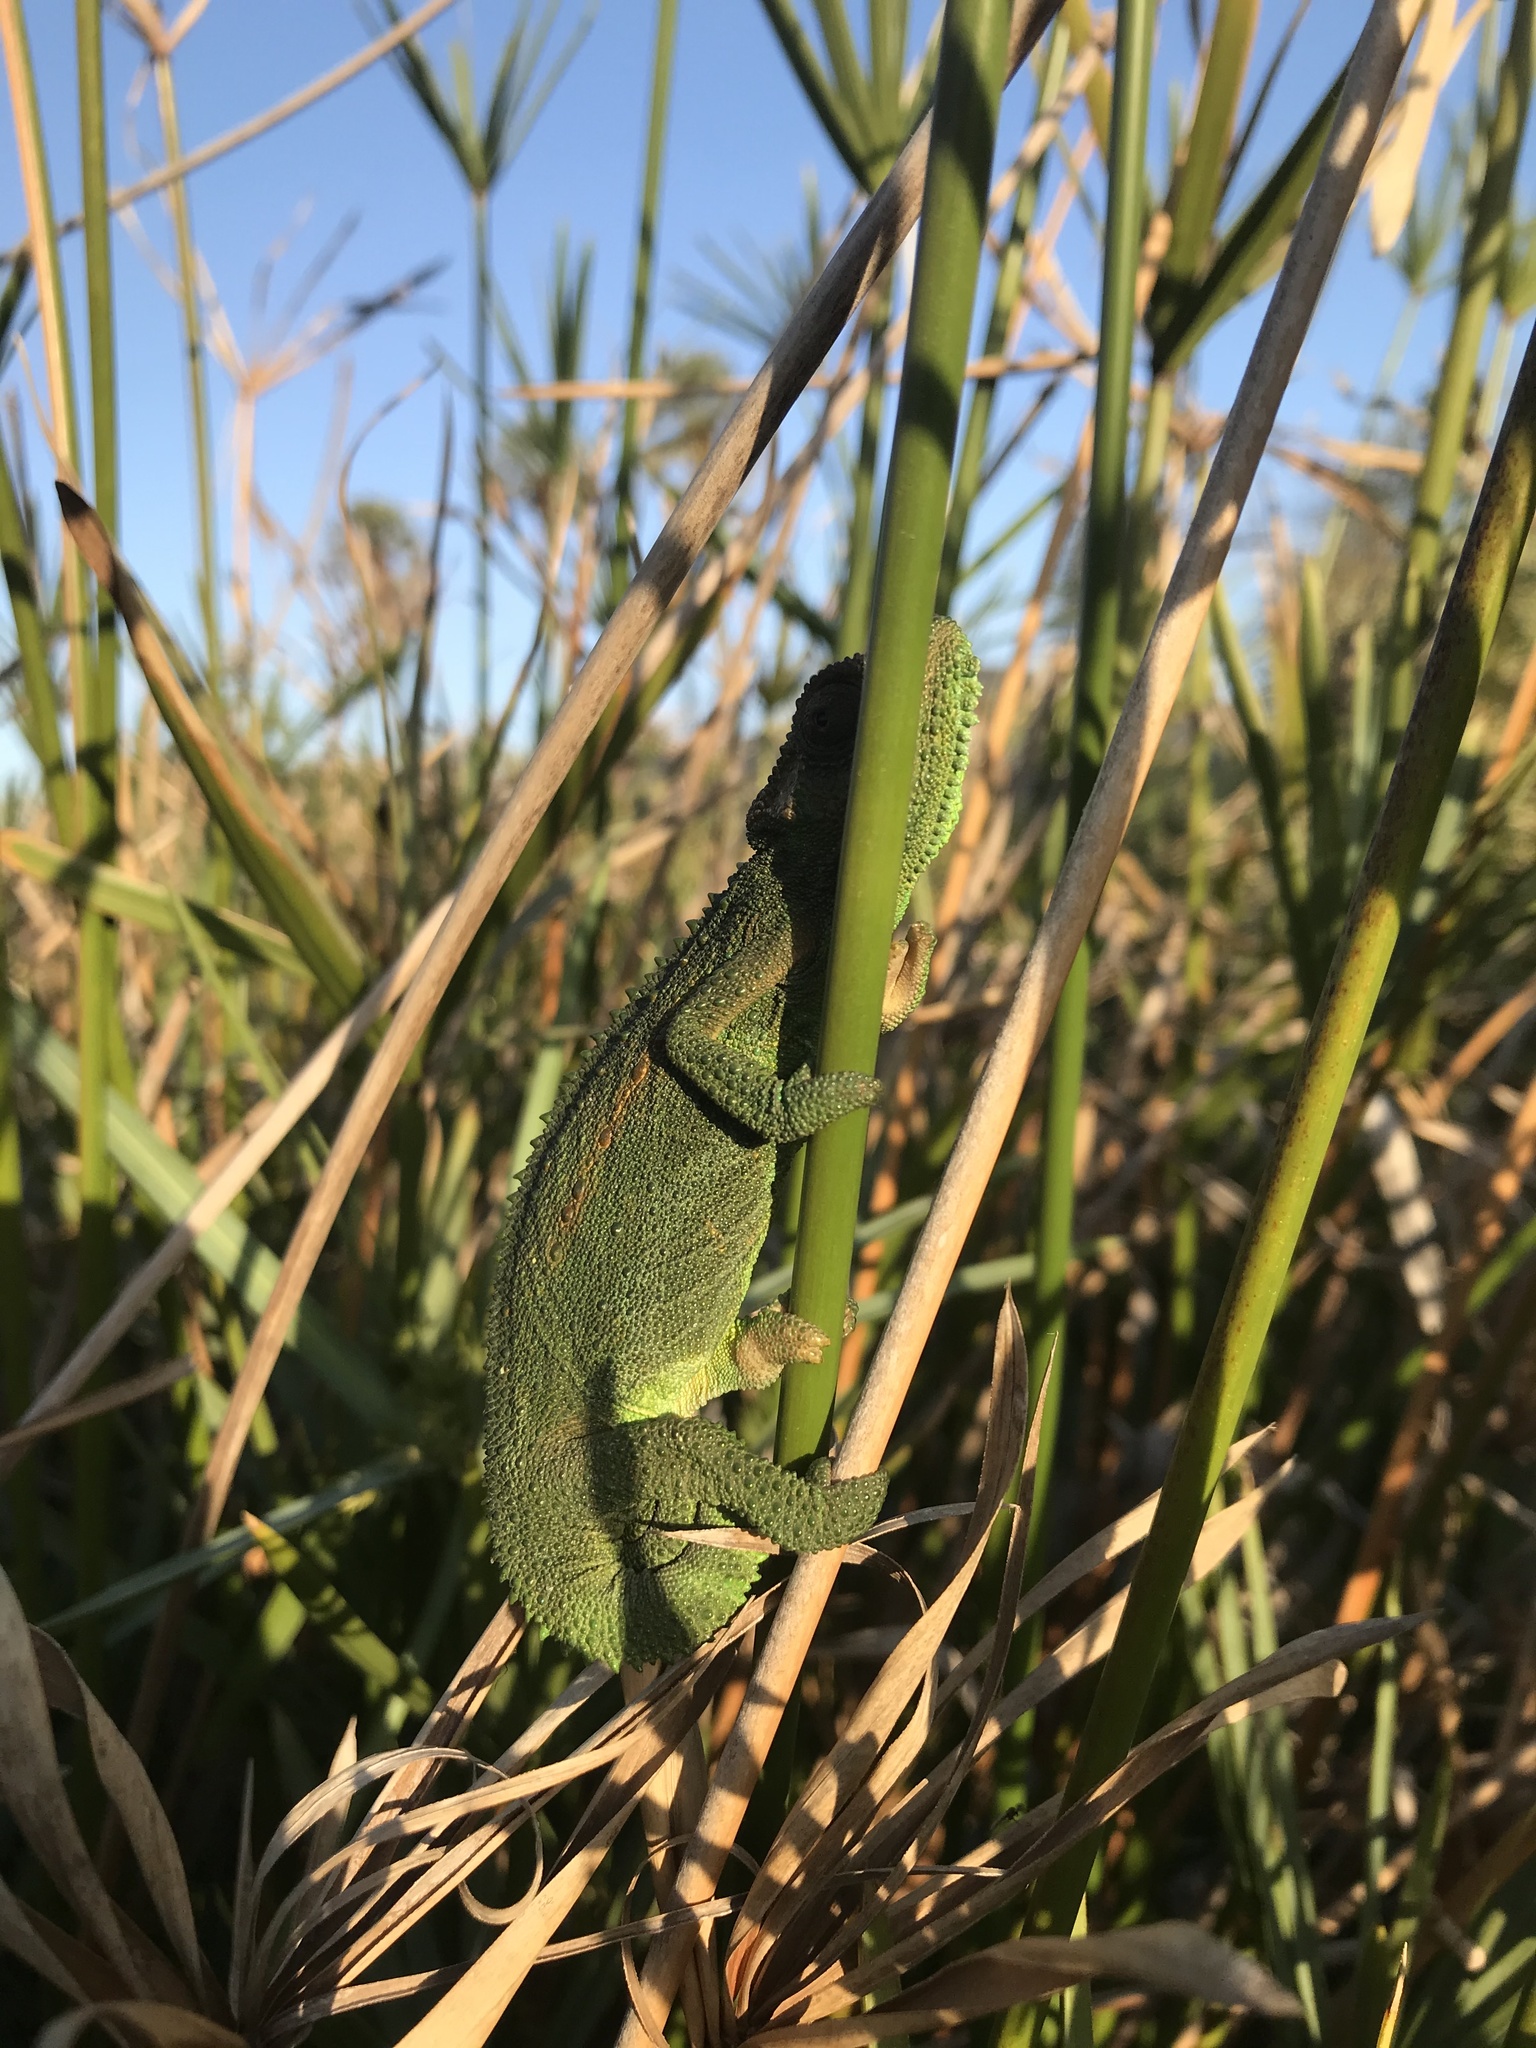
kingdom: Animalia
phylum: Chordata
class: Squamata
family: Chamaeleonidae
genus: Bradypodion
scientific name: Bradypodion pumilum
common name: Cape dwarf chameleon
